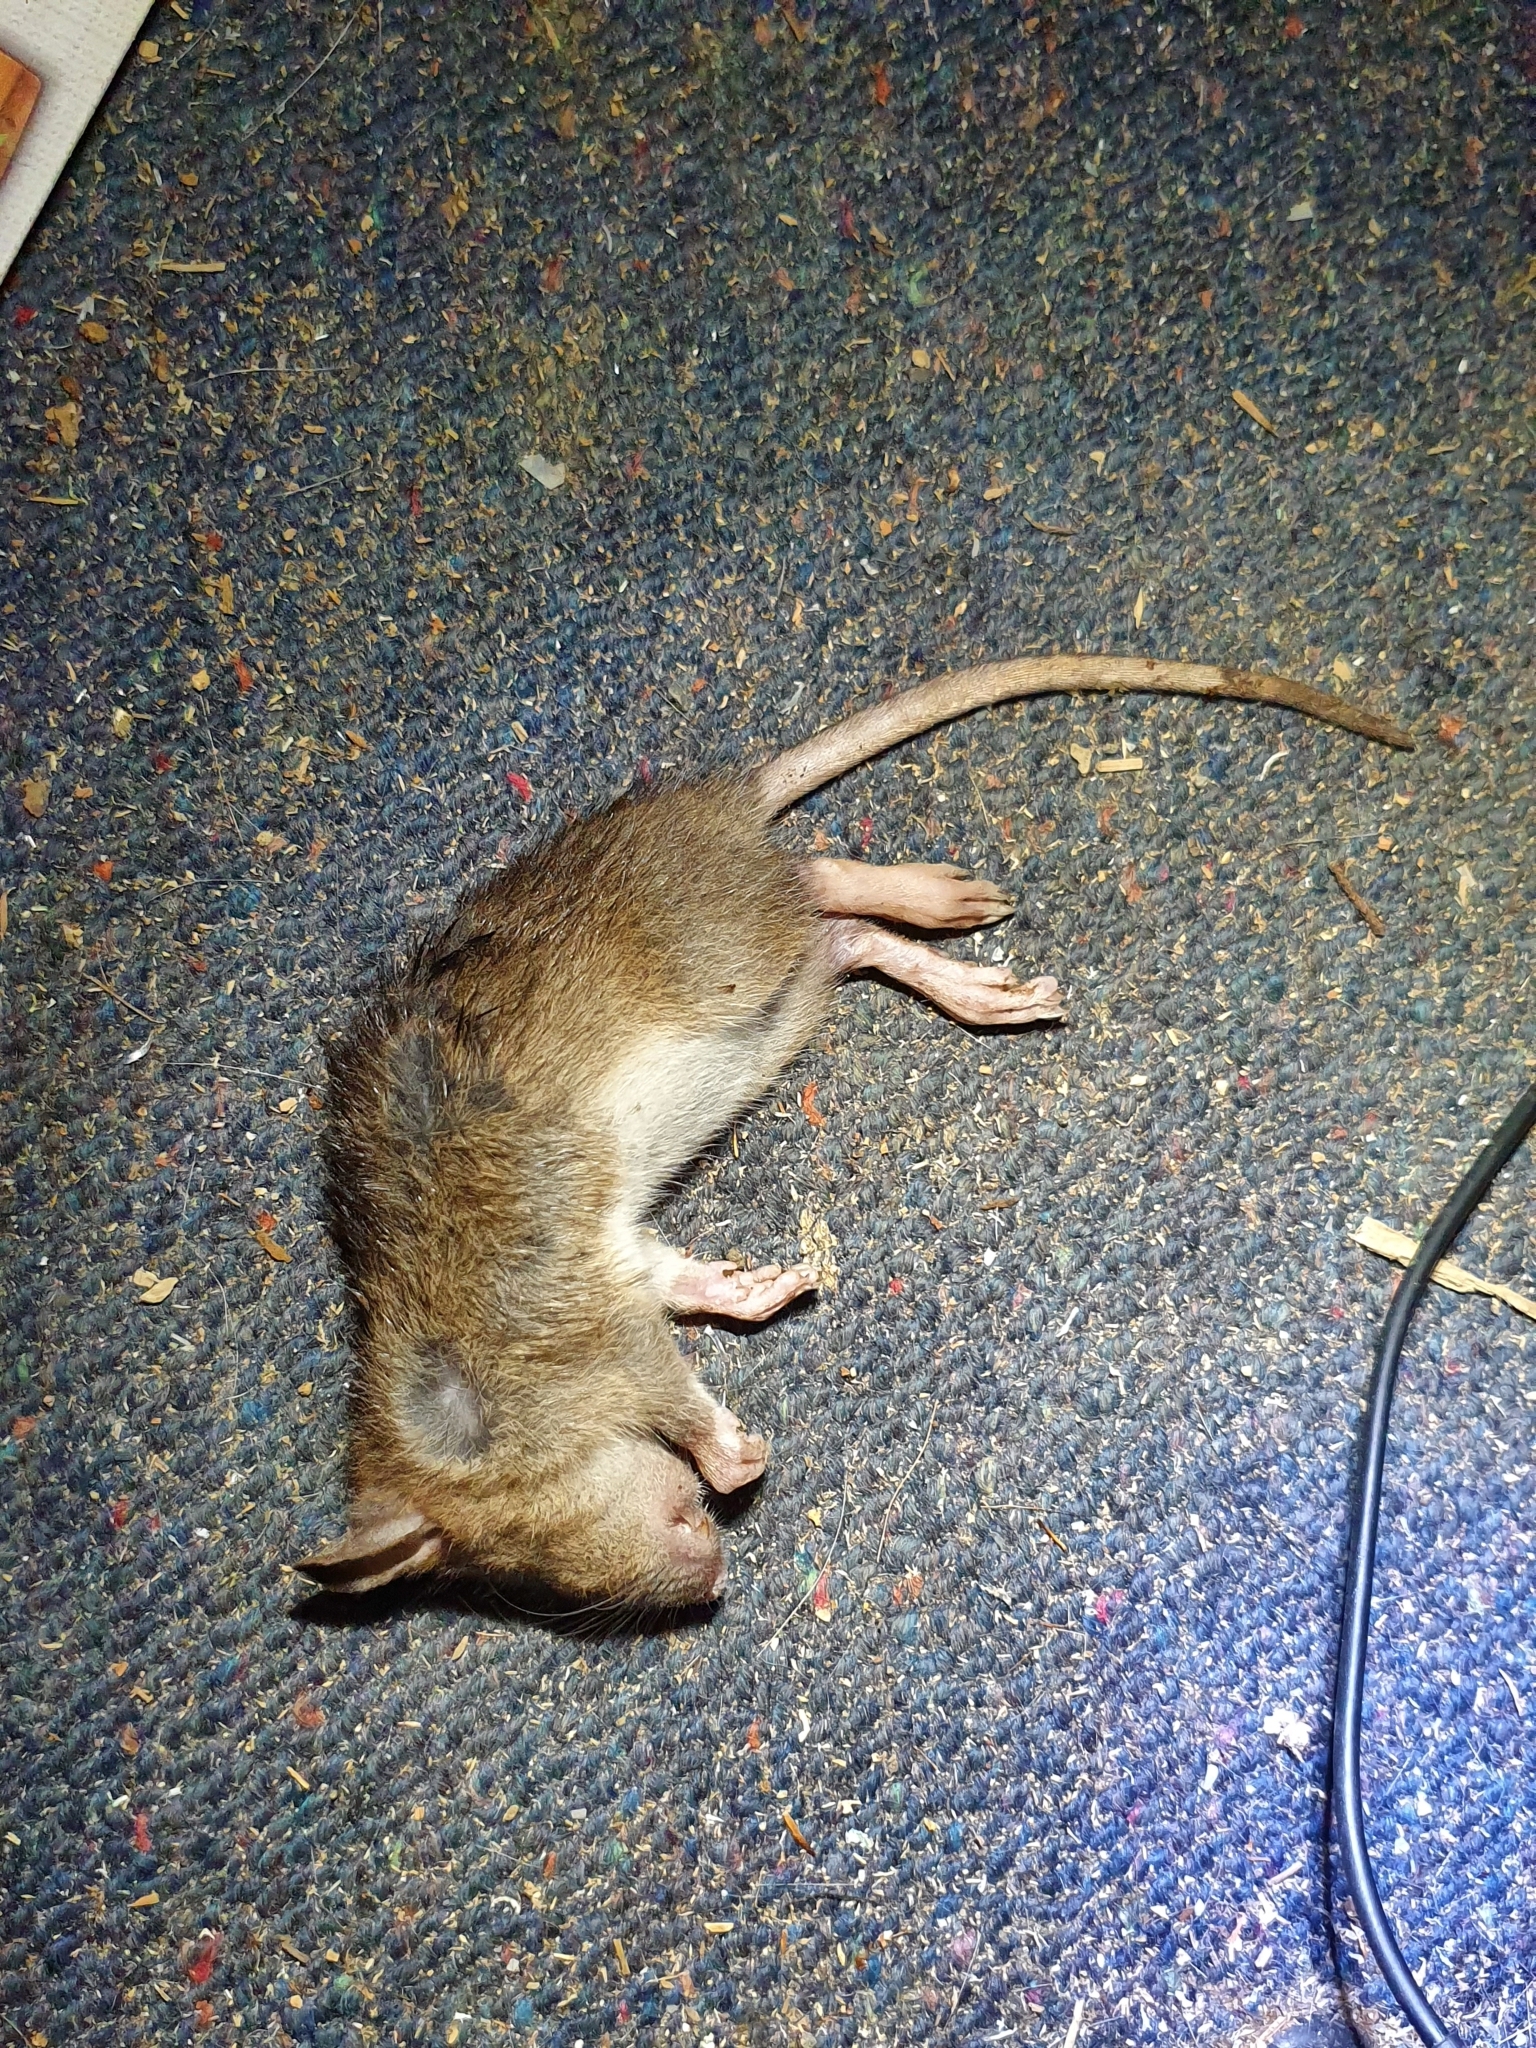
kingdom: Animalia
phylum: Chordata
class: Mammalia
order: Rodentia
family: Muridae
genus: Rattus
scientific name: Rattus norvegicus
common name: Brown rat
